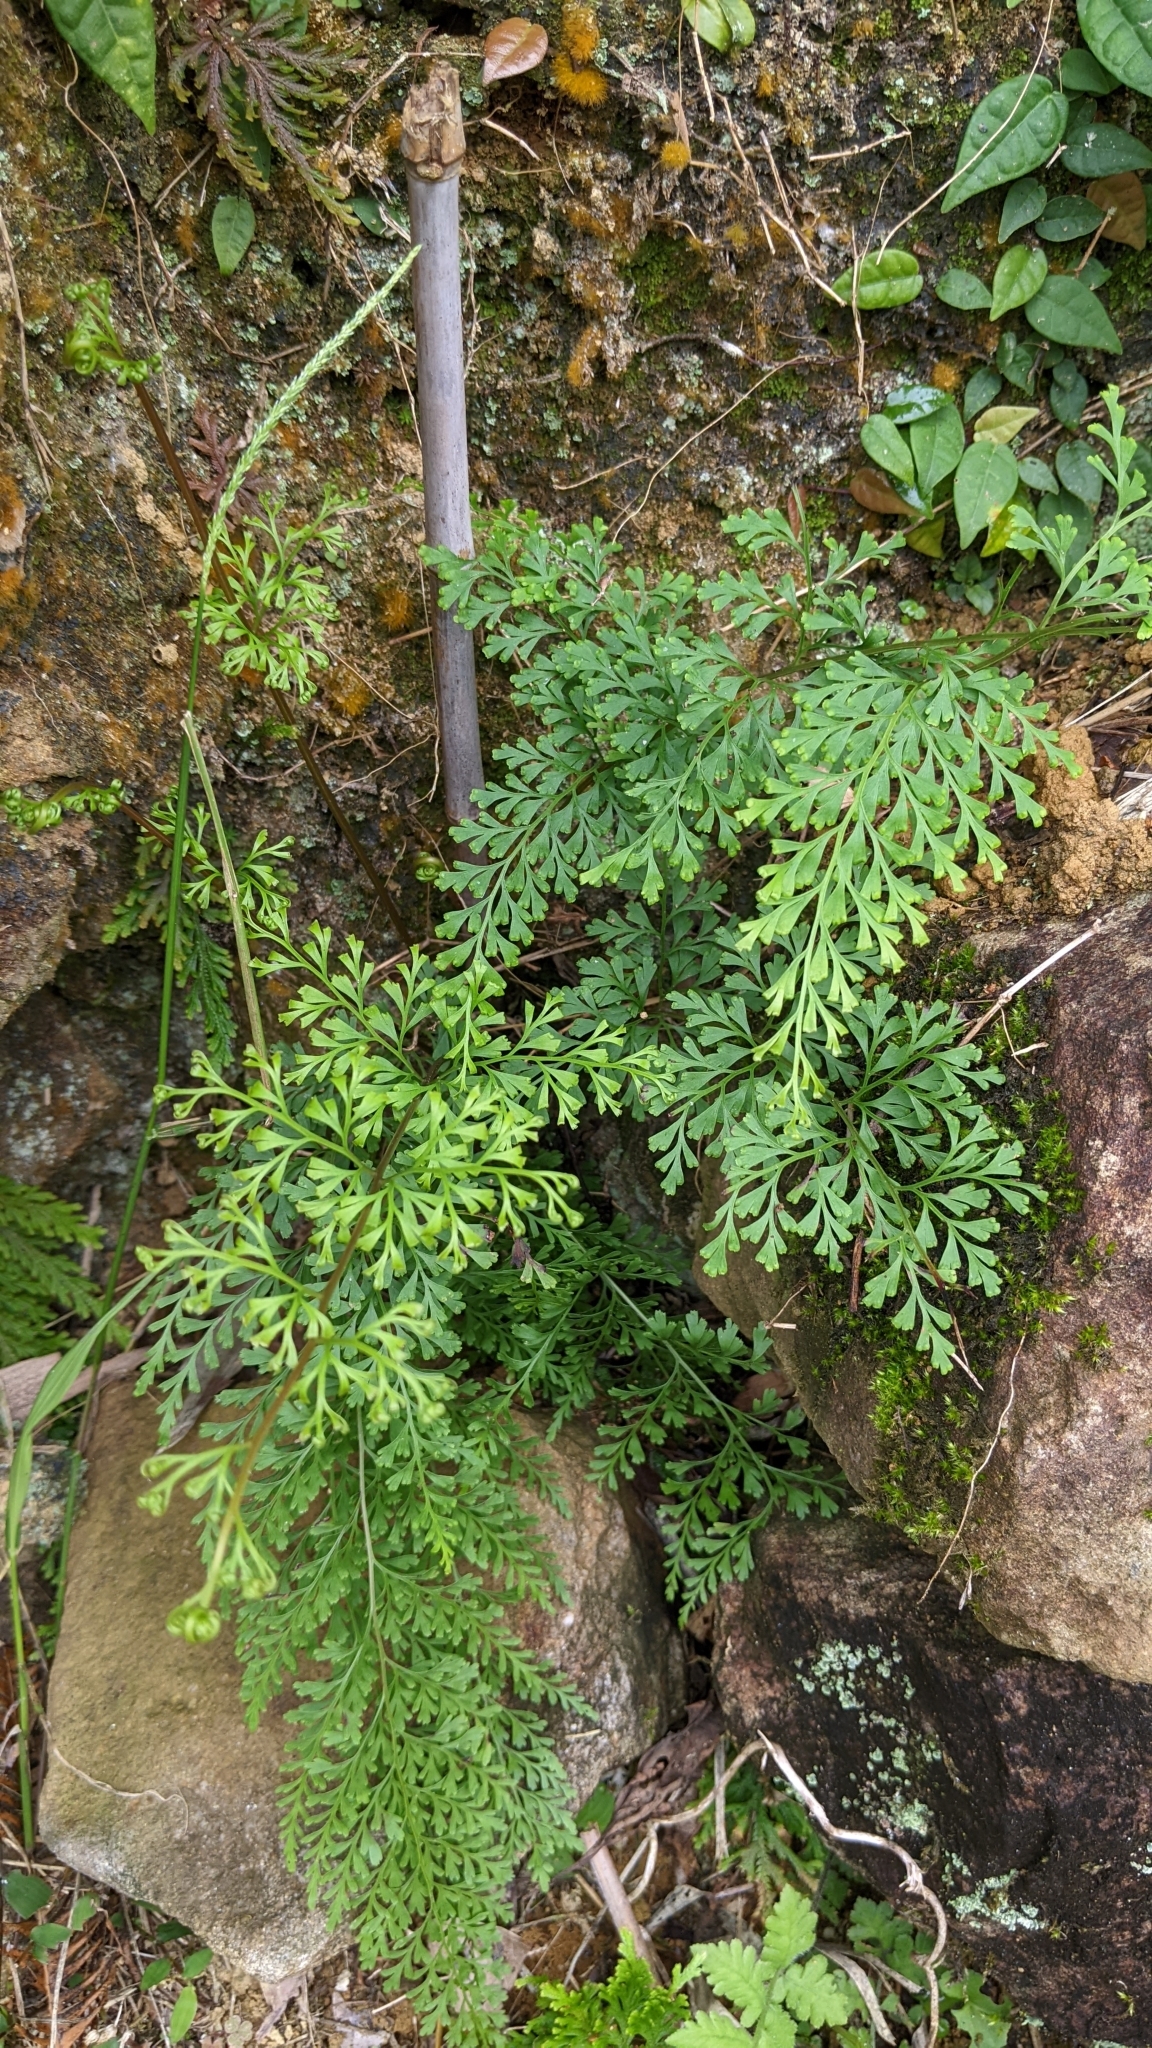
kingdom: Plantae
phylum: Tracheophyta
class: Polypodiopsida
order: Polypodiales
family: Lindsaeaceae
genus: Odontosoria
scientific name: Odontosoria chinensis
